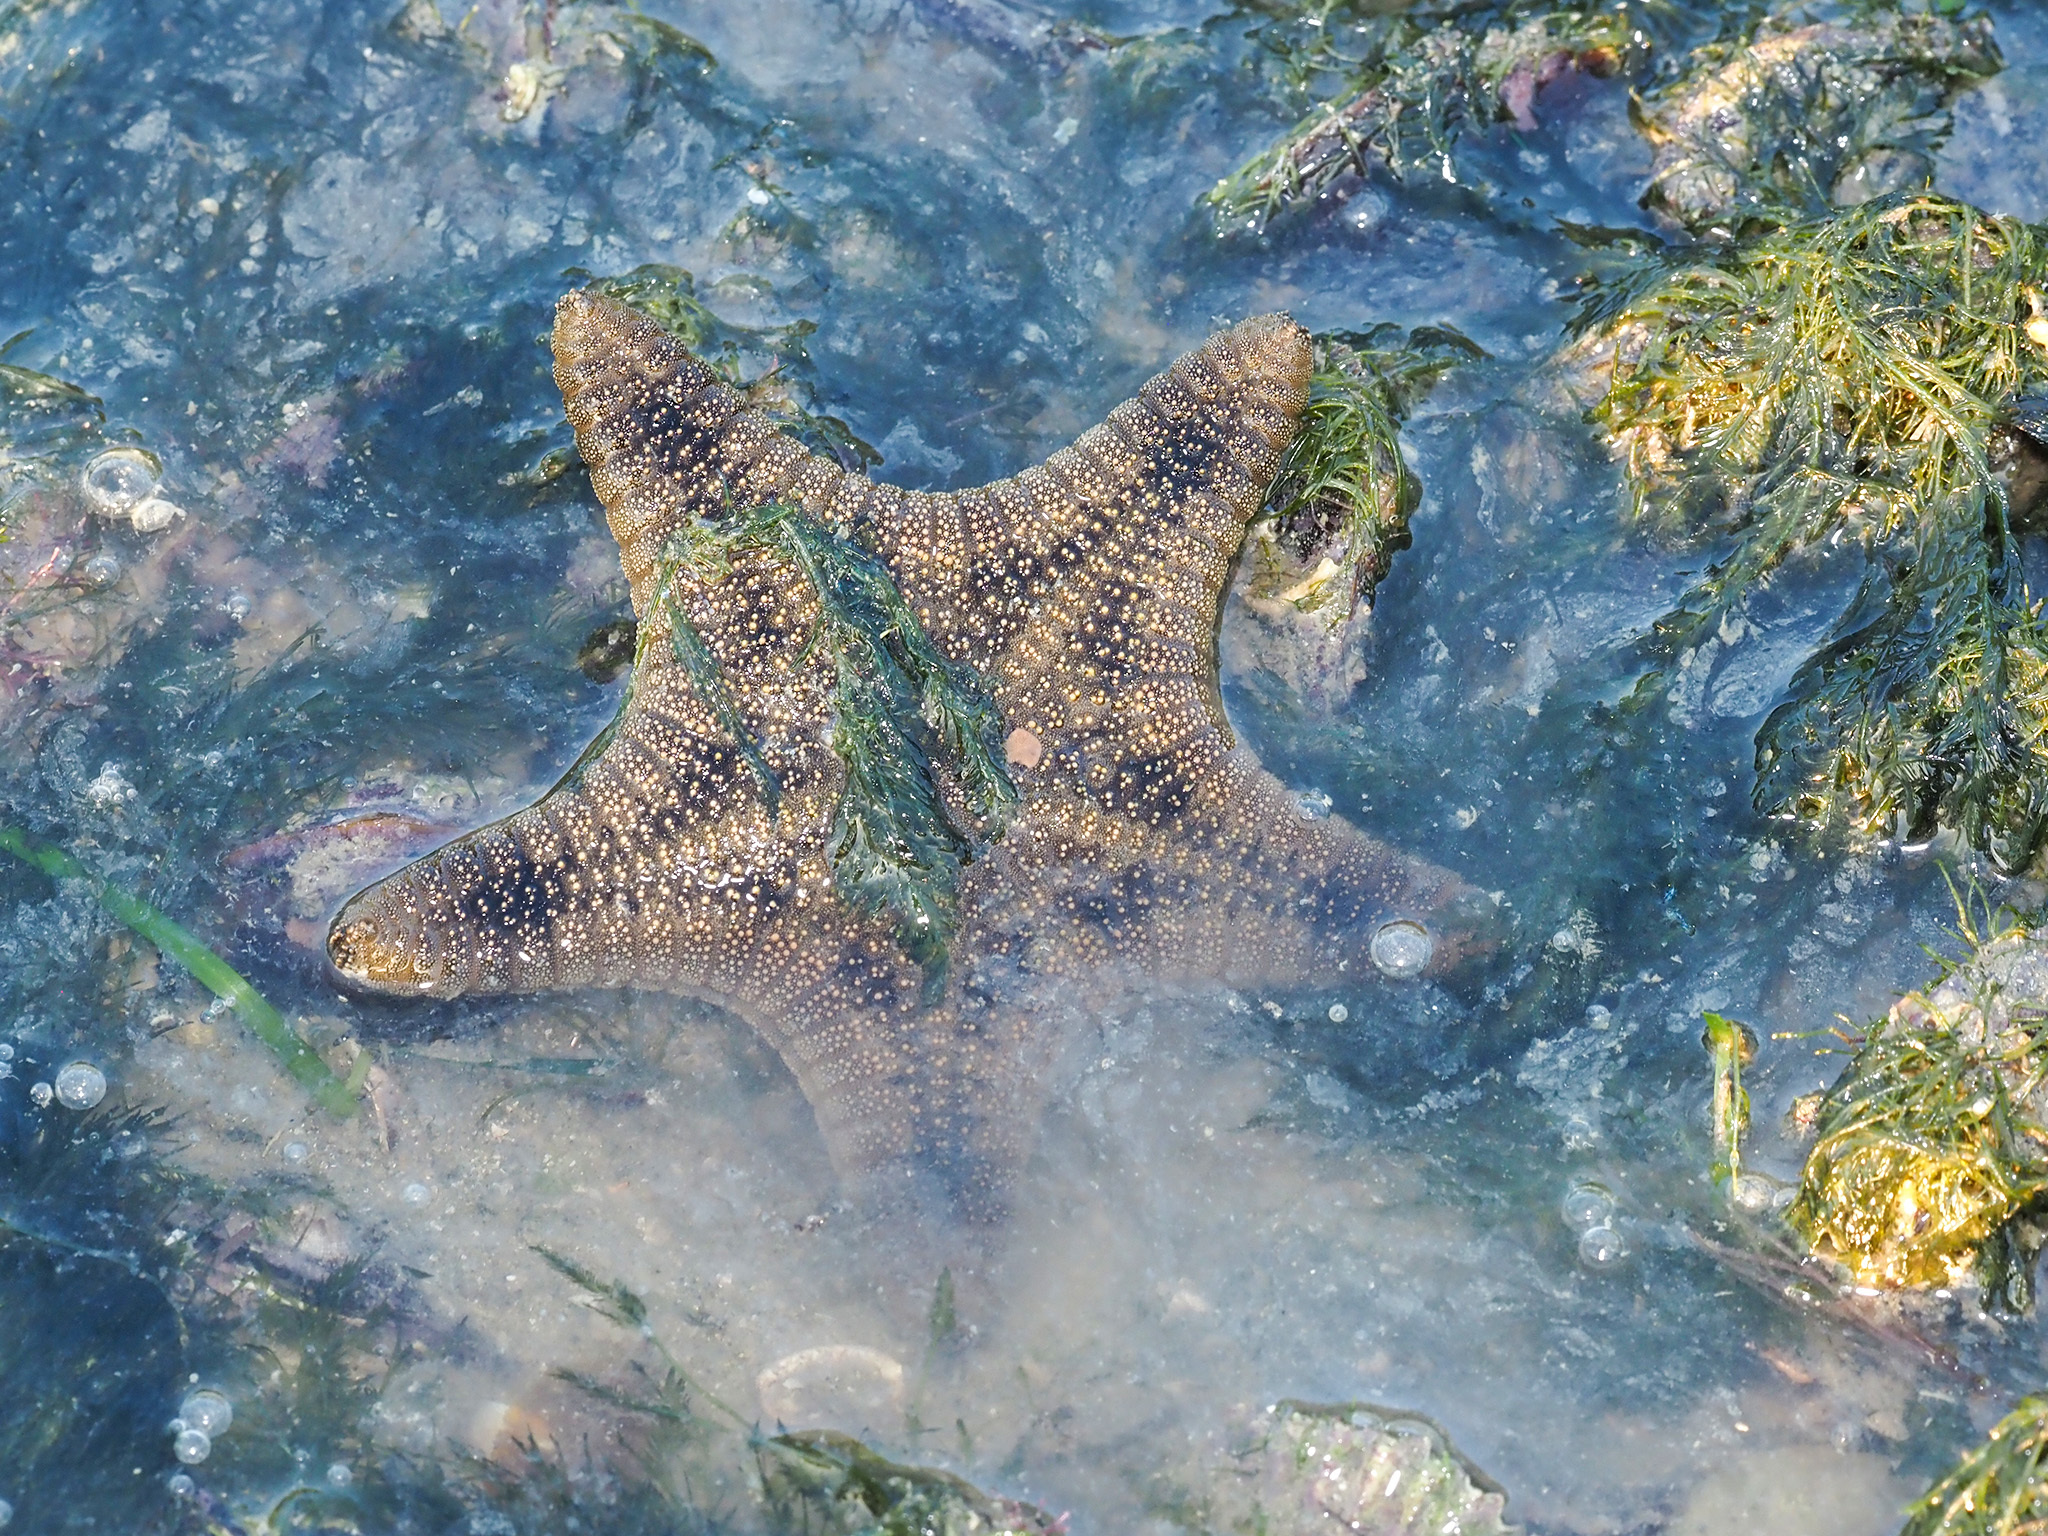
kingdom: Animalia
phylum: Echinodermata
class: Asteroidea
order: Valvatida
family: Goniasteridae
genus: Goniodiscaster
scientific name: Goniodiscaster scaber
